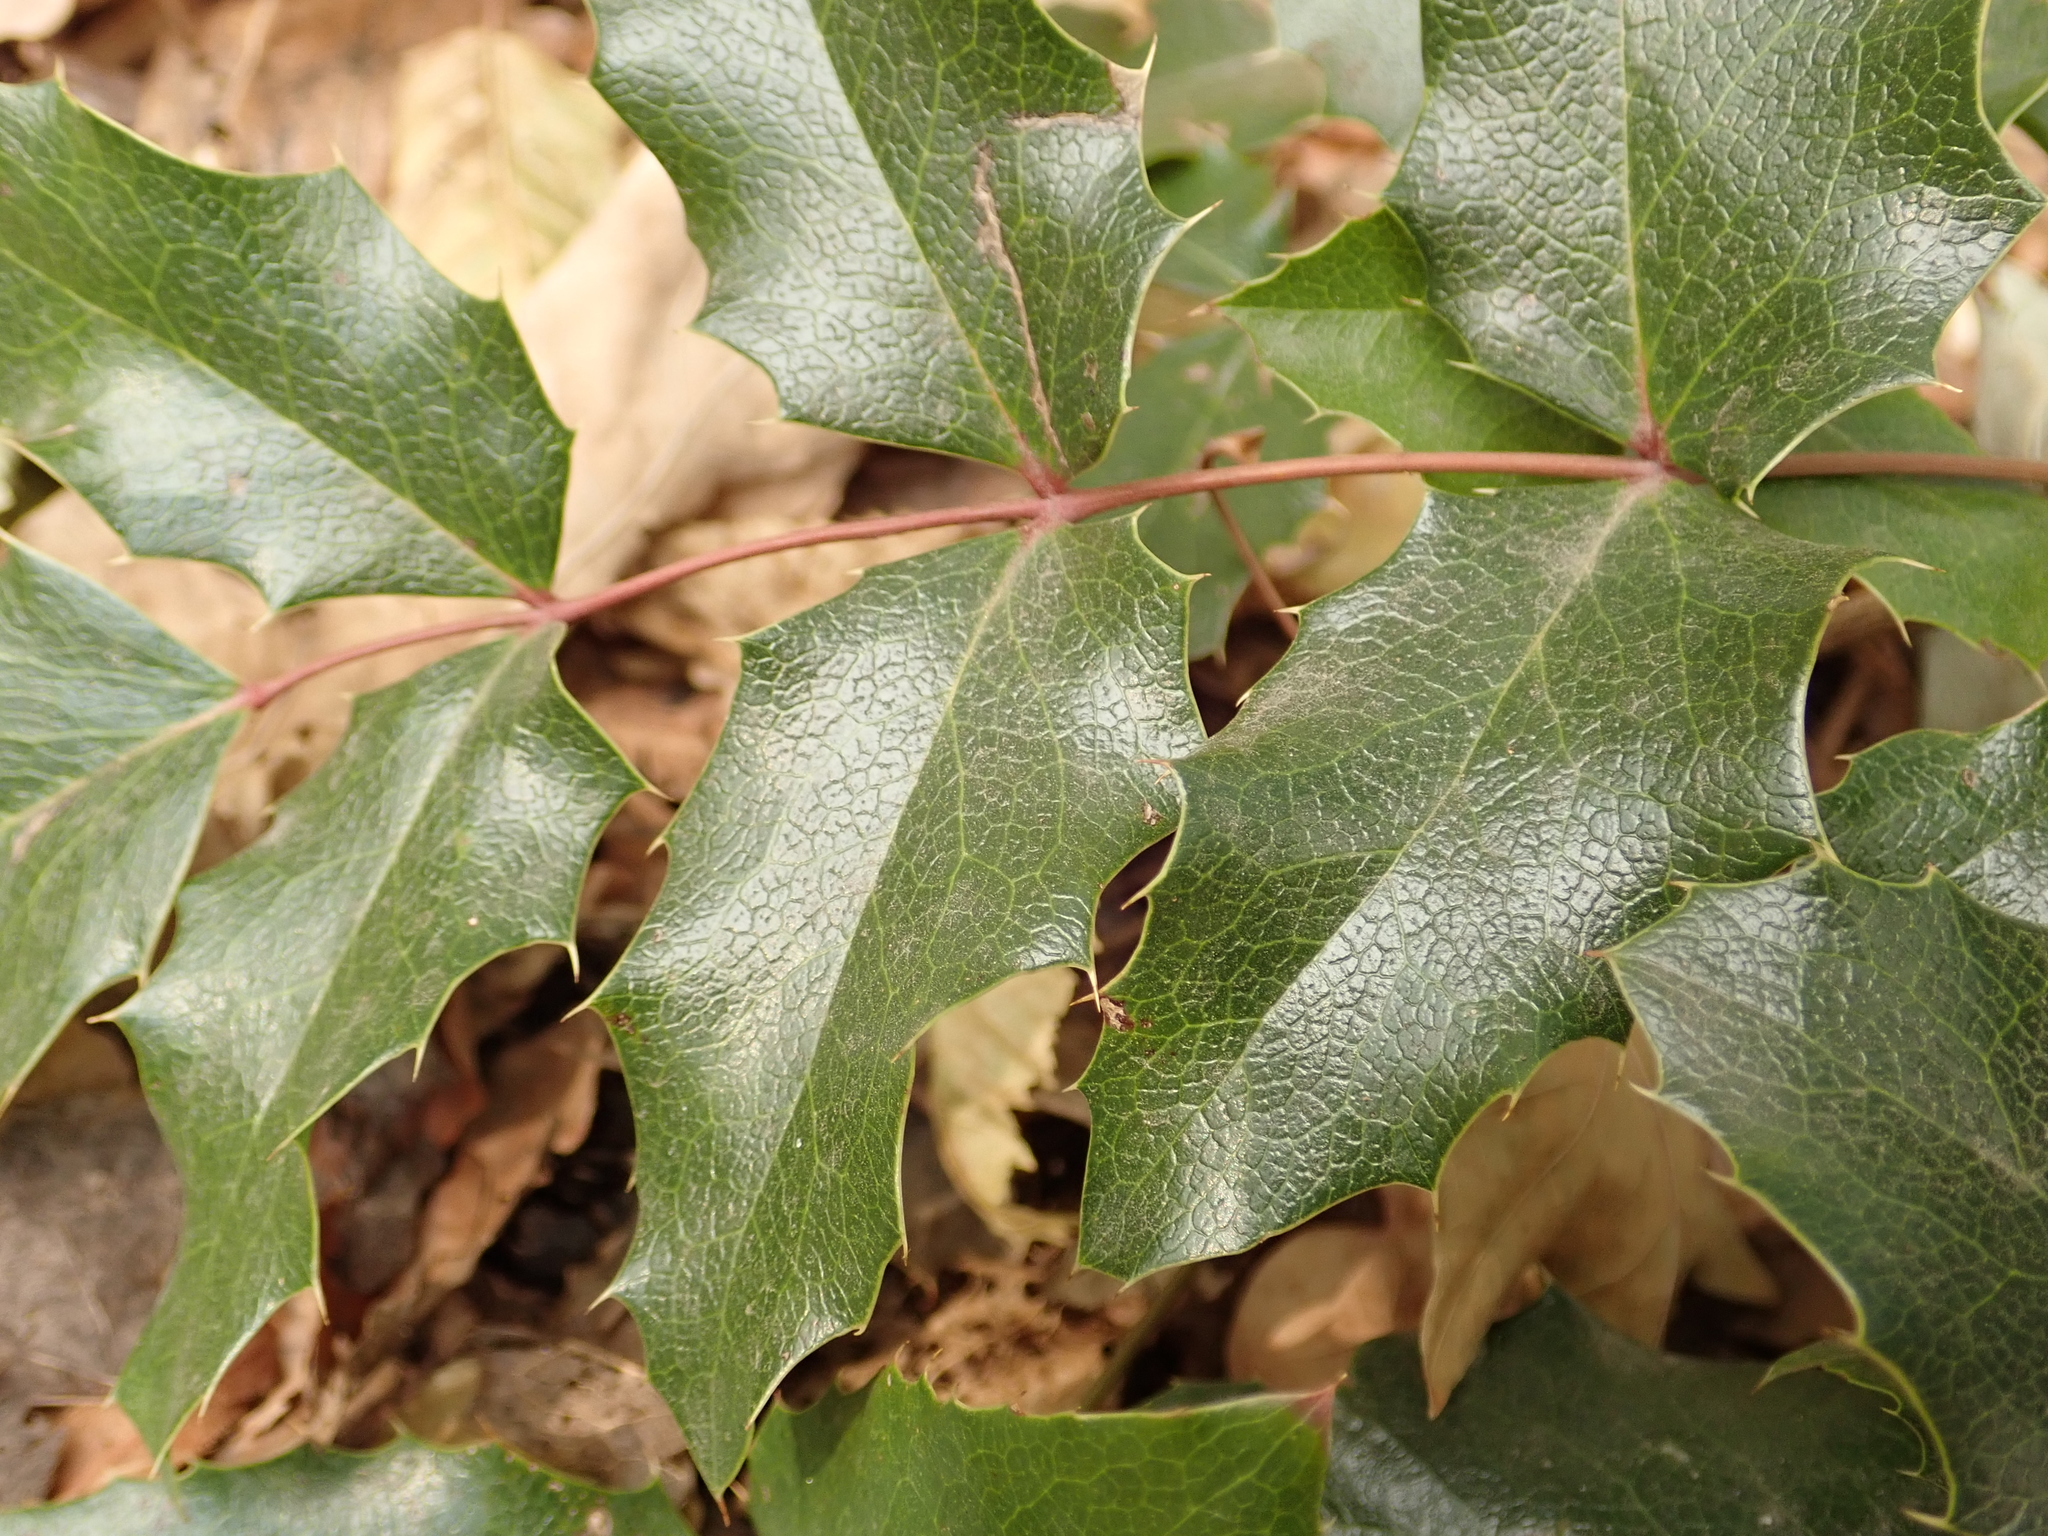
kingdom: Plantae
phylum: Tracheophyta
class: Magnoliopsida
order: Ranunculales
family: Berberidaceae
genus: Mahonia
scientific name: Mahonia aquifolium
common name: Oregon-grape
